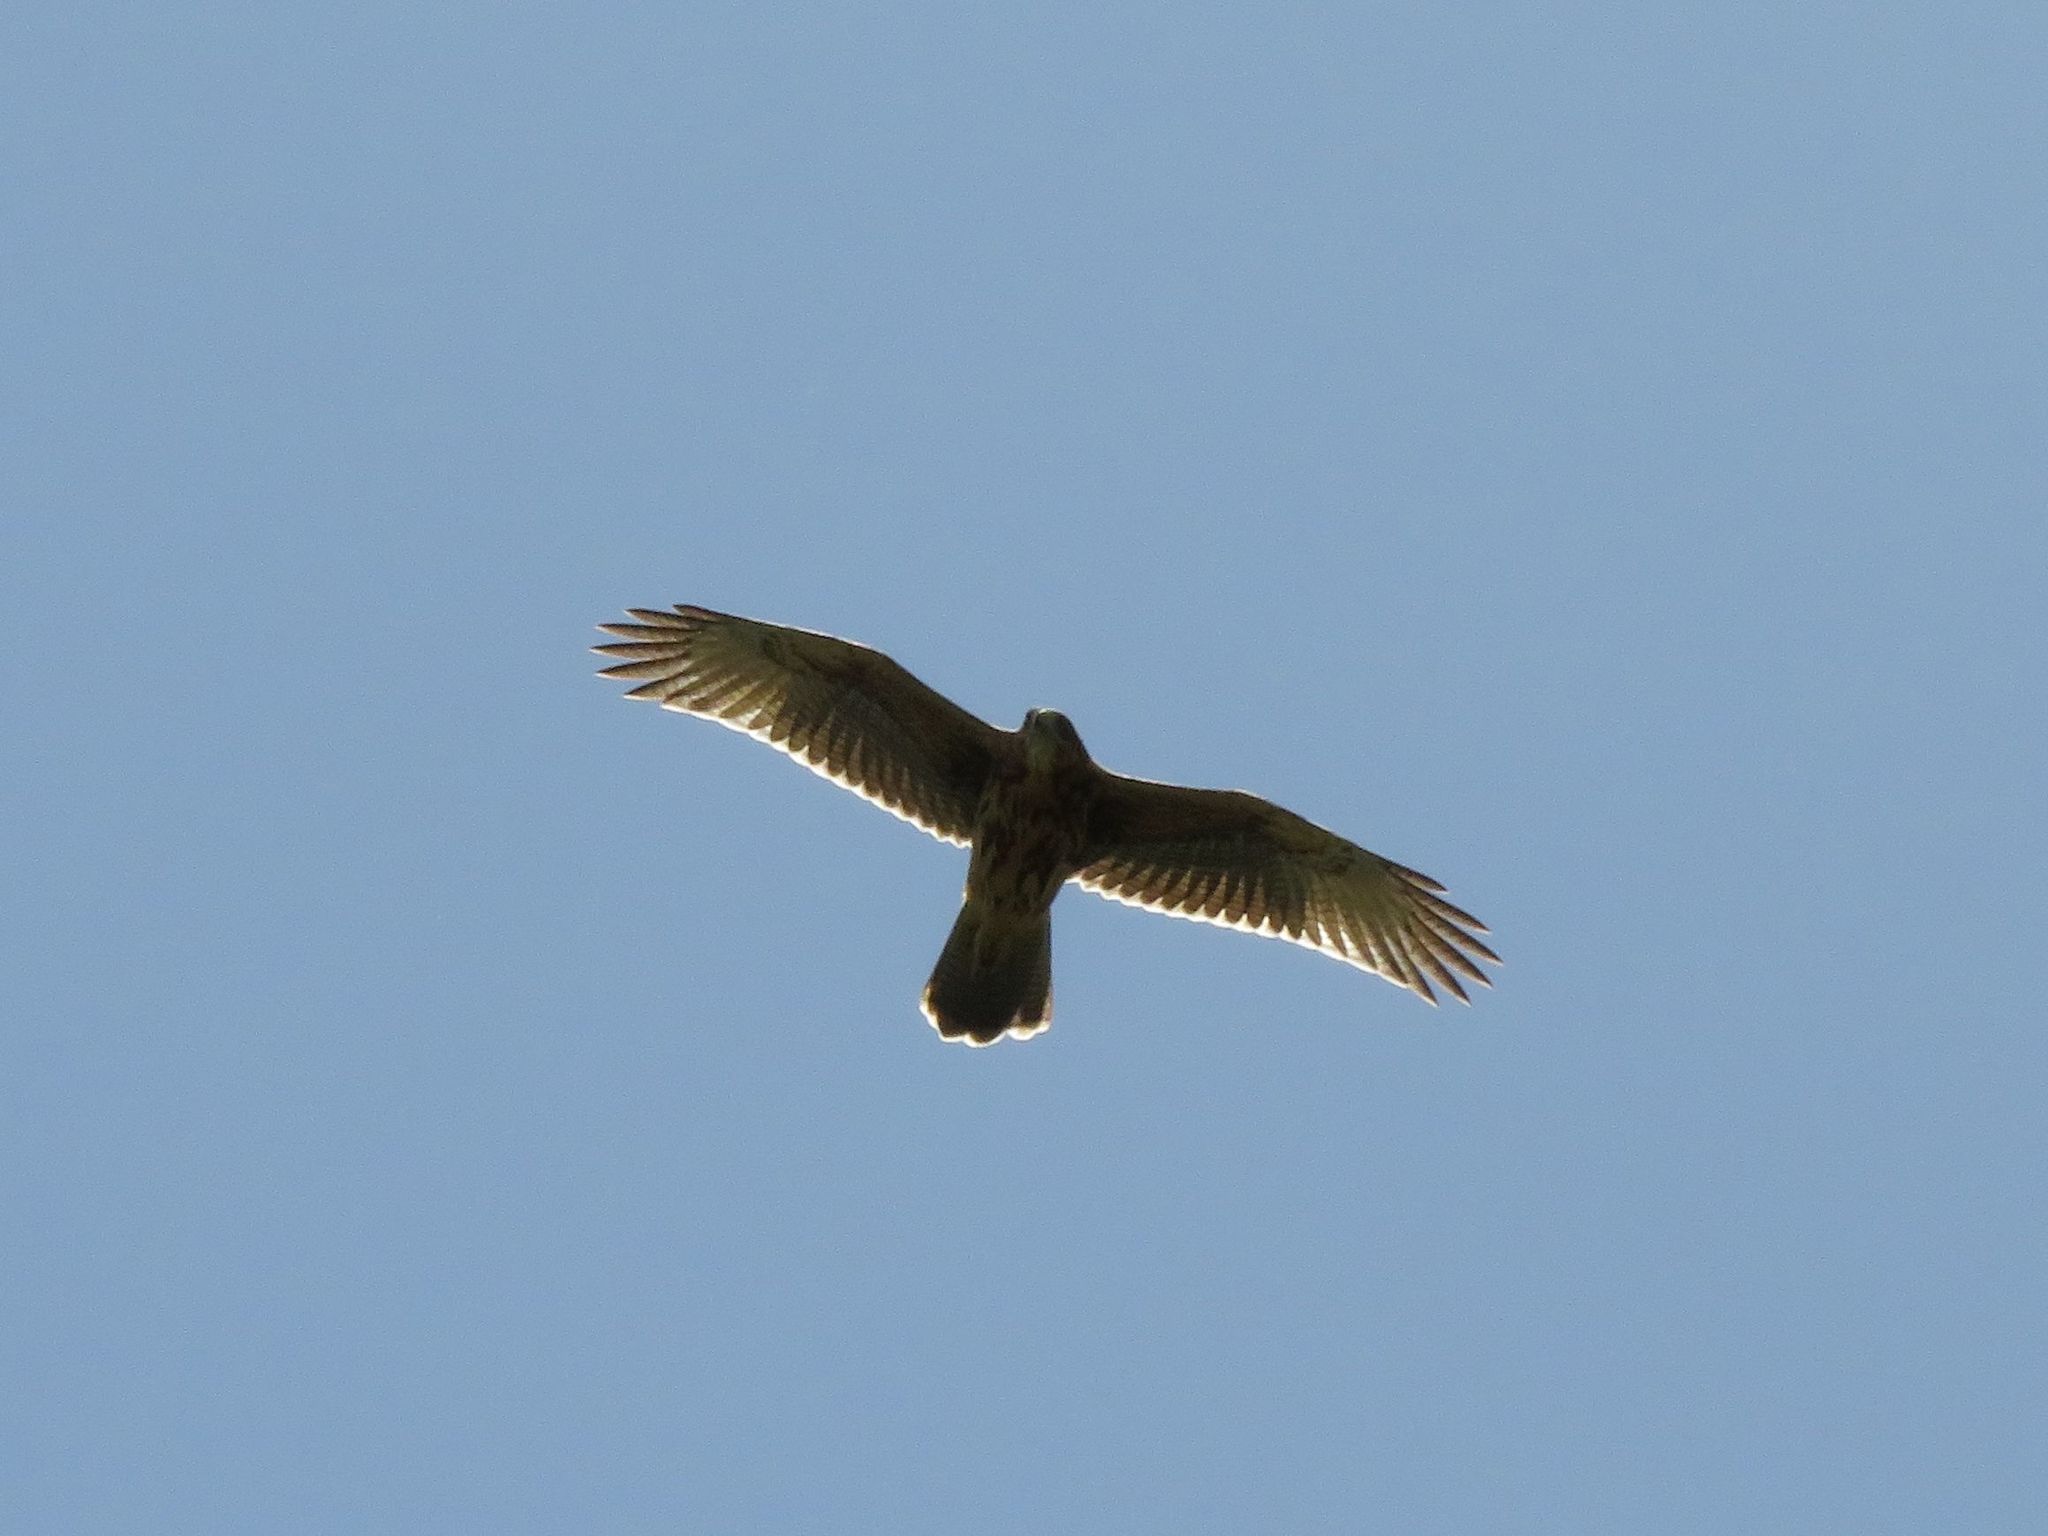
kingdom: Animalia
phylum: Chordata
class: Aves
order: Accipitriformes
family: Accipitridae
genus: Parabuteo
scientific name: Parabuteo unicinctus
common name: Harris's hawk
